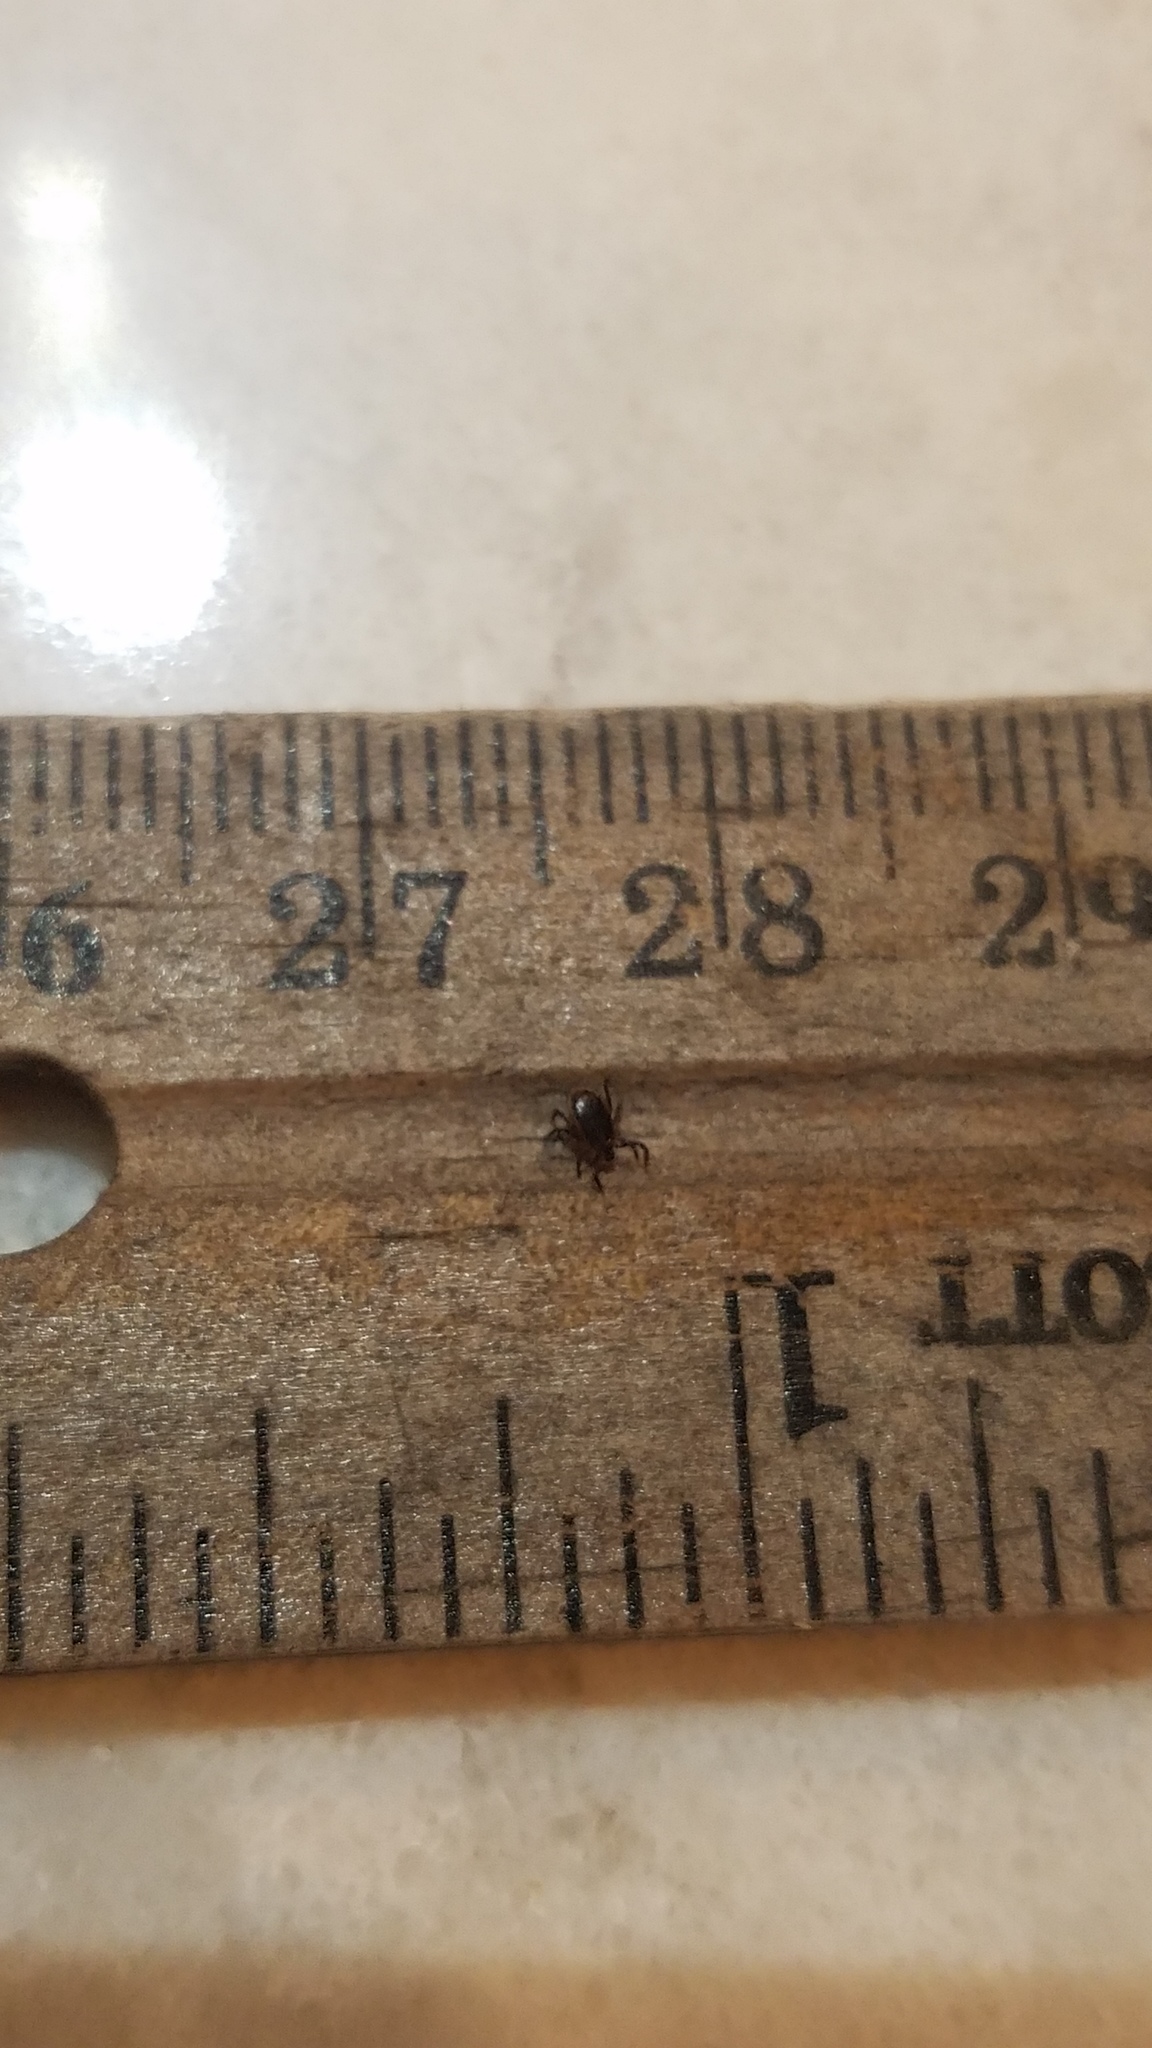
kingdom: Animalia
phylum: Arthropoda
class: Arachnida
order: Ixodida
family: Ixodidae
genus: Ixodes
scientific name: Ixodes scapularis
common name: Black legged tick
